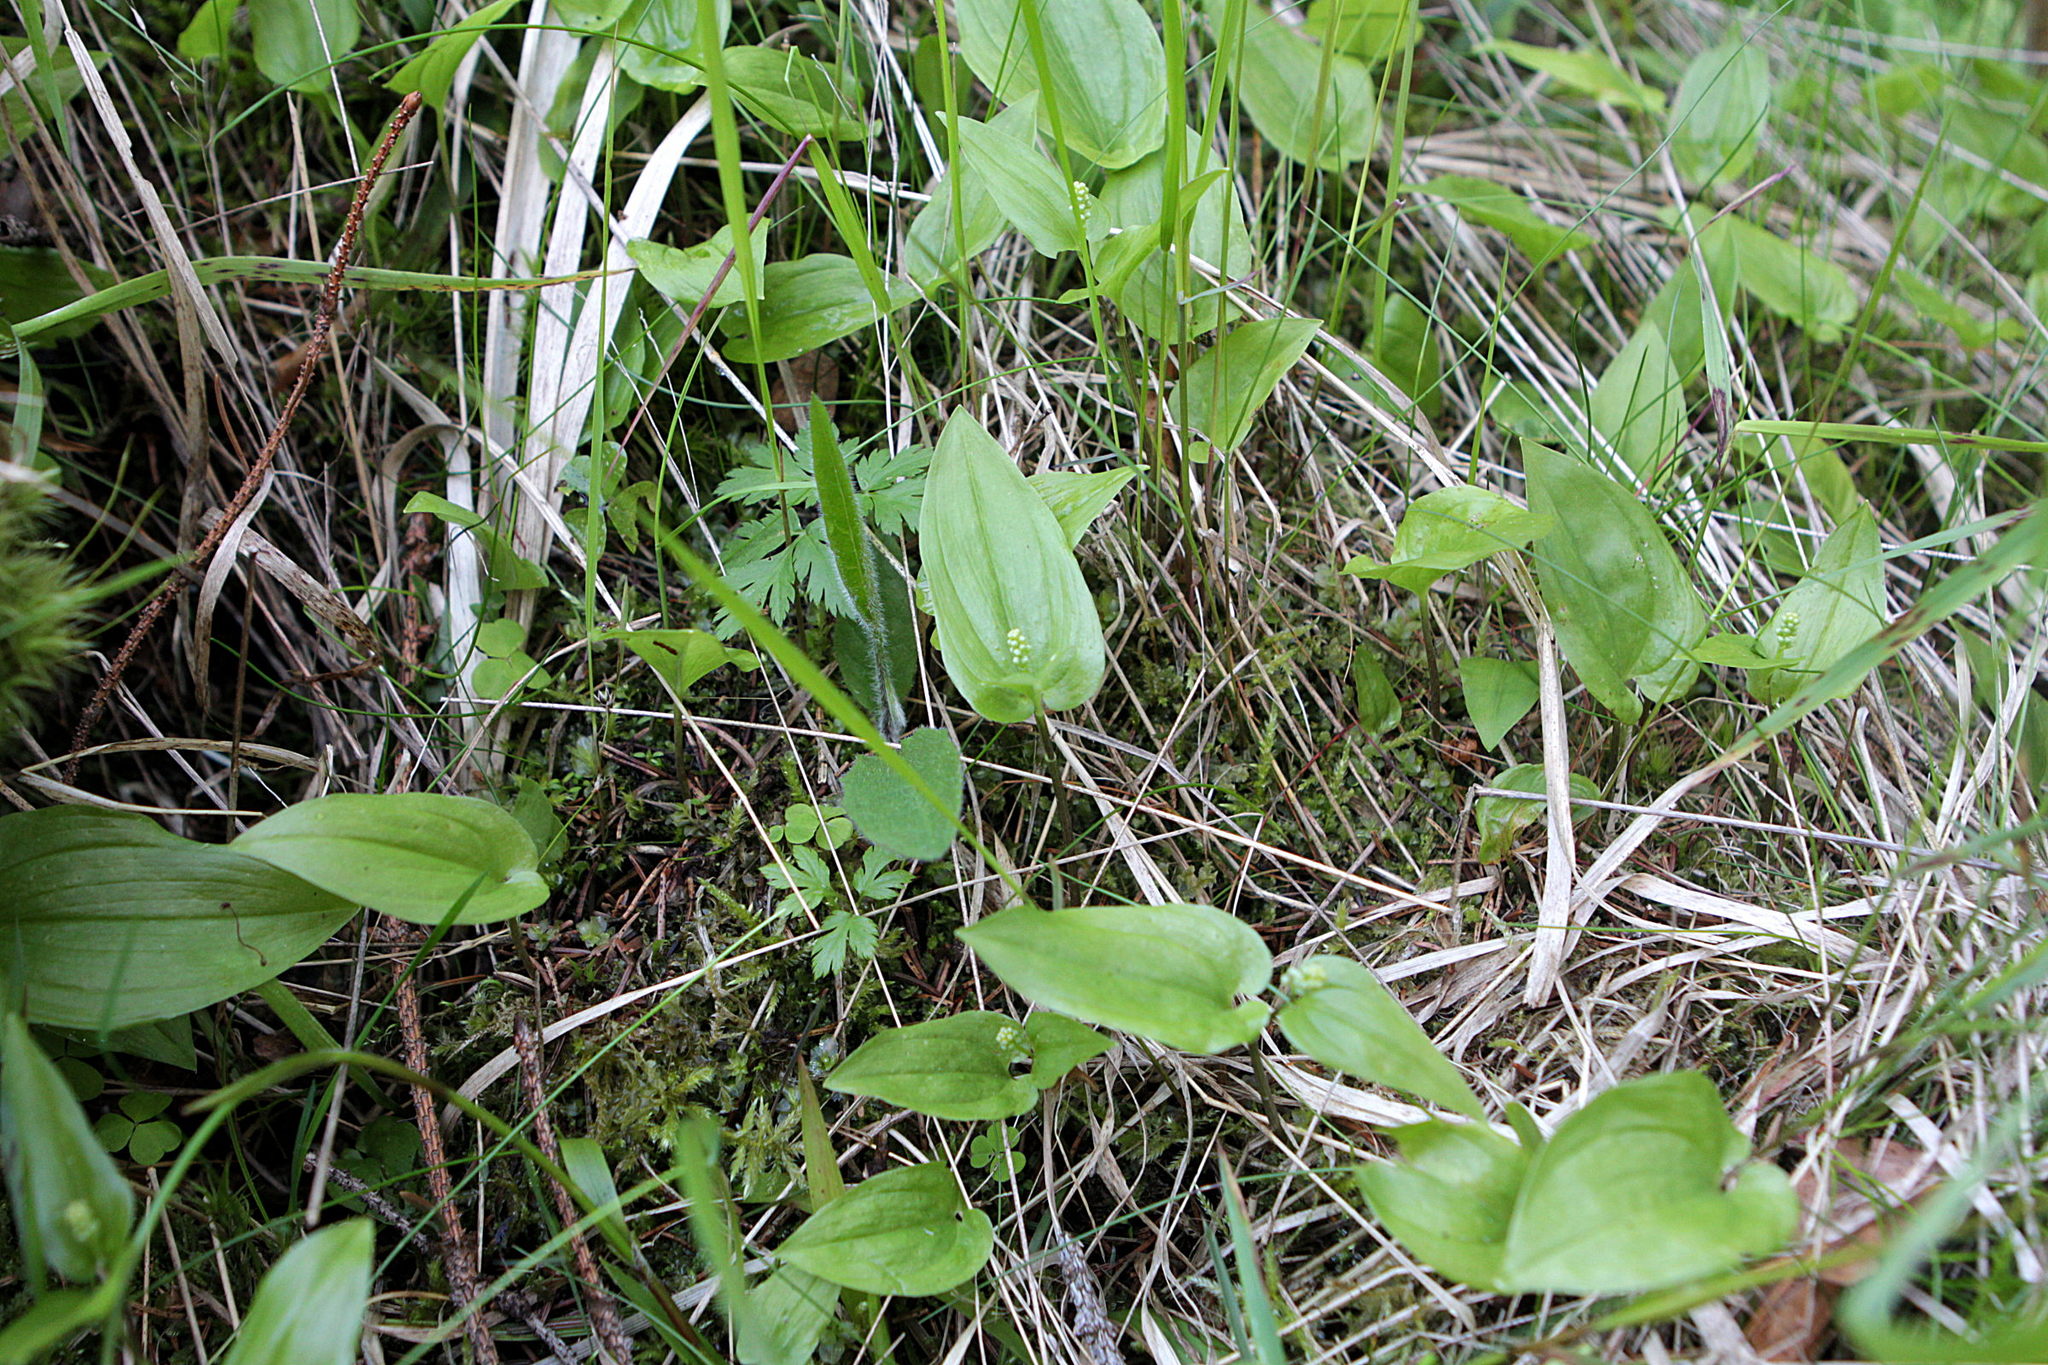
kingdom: Plantae
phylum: Tracheophyta
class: Liliopsida
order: Asparagales
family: Asparagaceae
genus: Maianthemum
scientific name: Maianthemum bifolium
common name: May lily
